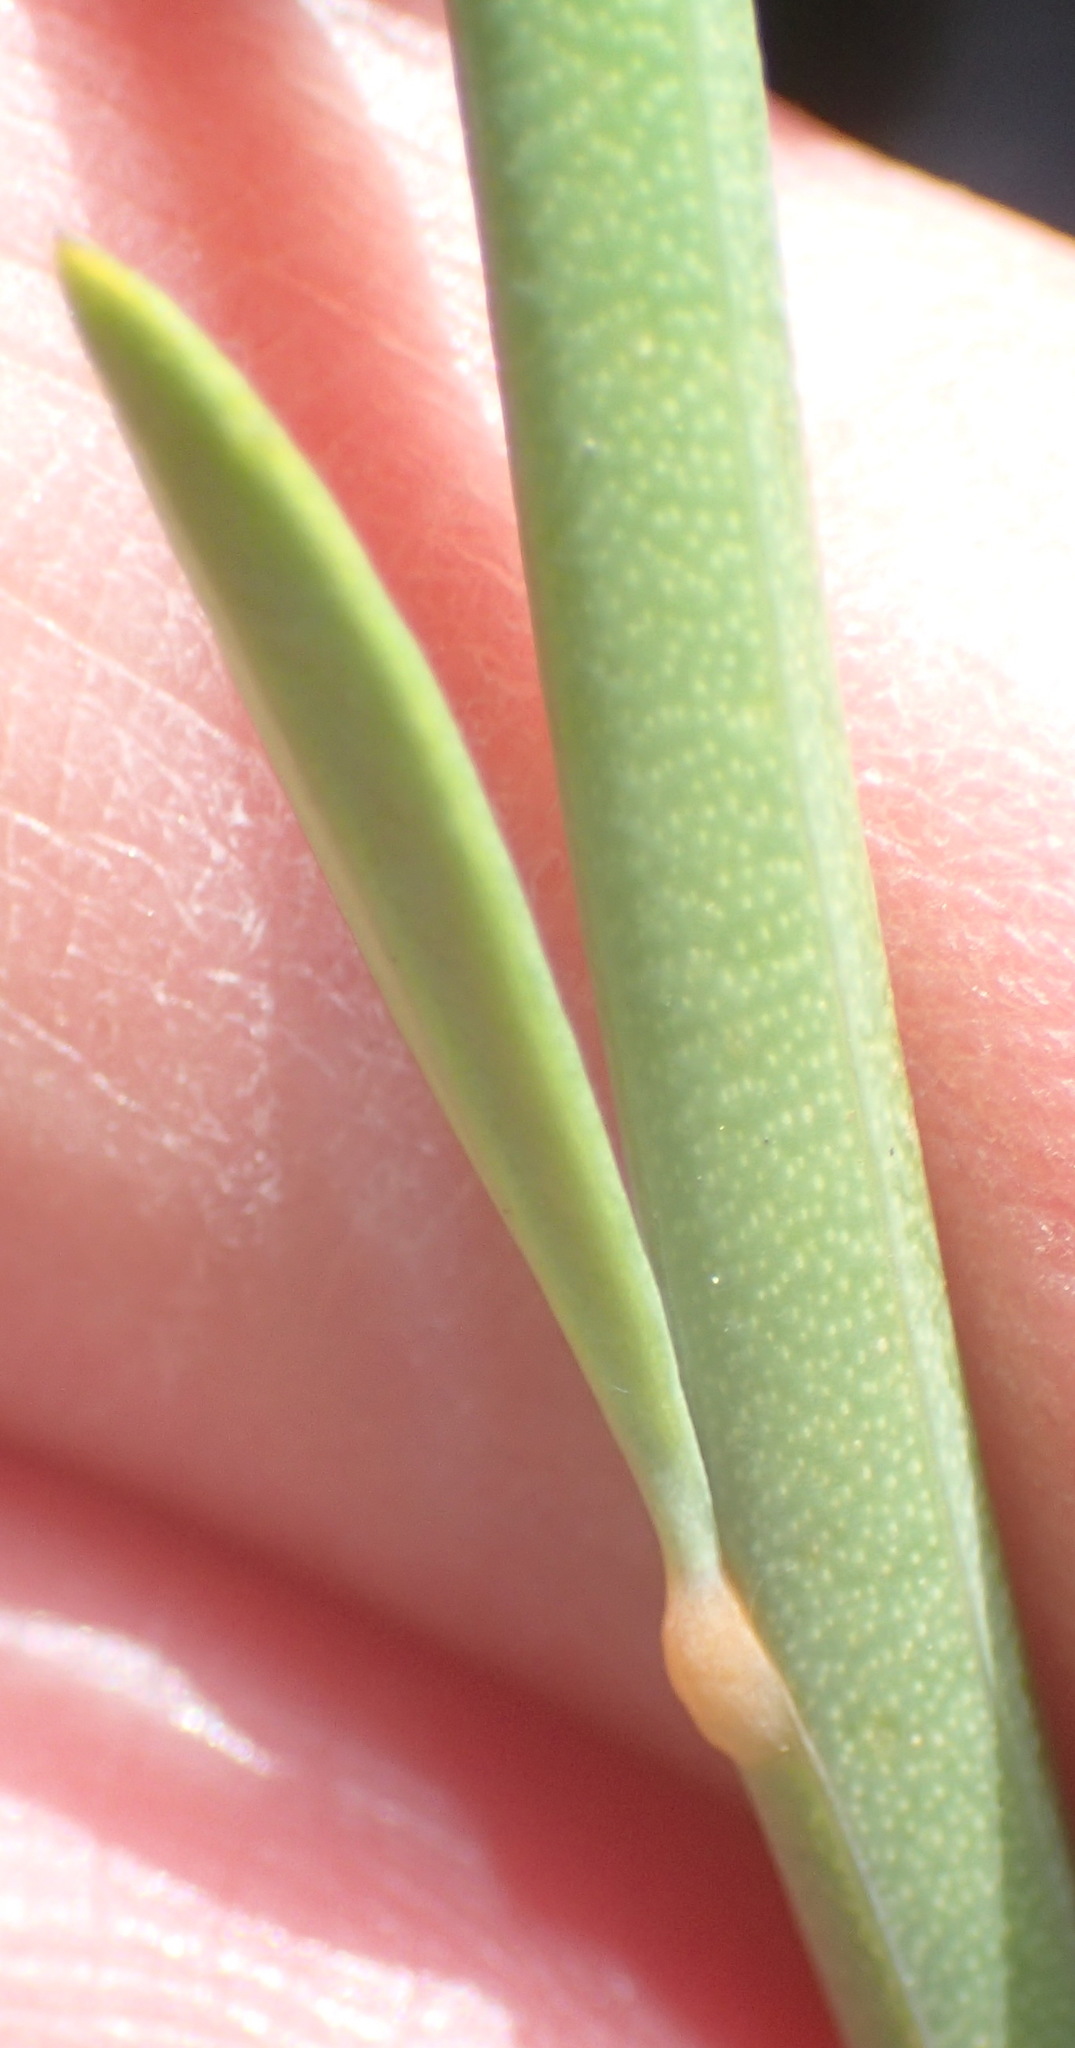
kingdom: Plantae
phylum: Tracheophyta
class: Magnoliopsida
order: Solanales
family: Montiniaceae
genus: Montinia
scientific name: Montinia caryophyllacea
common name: Wild clove-bush
